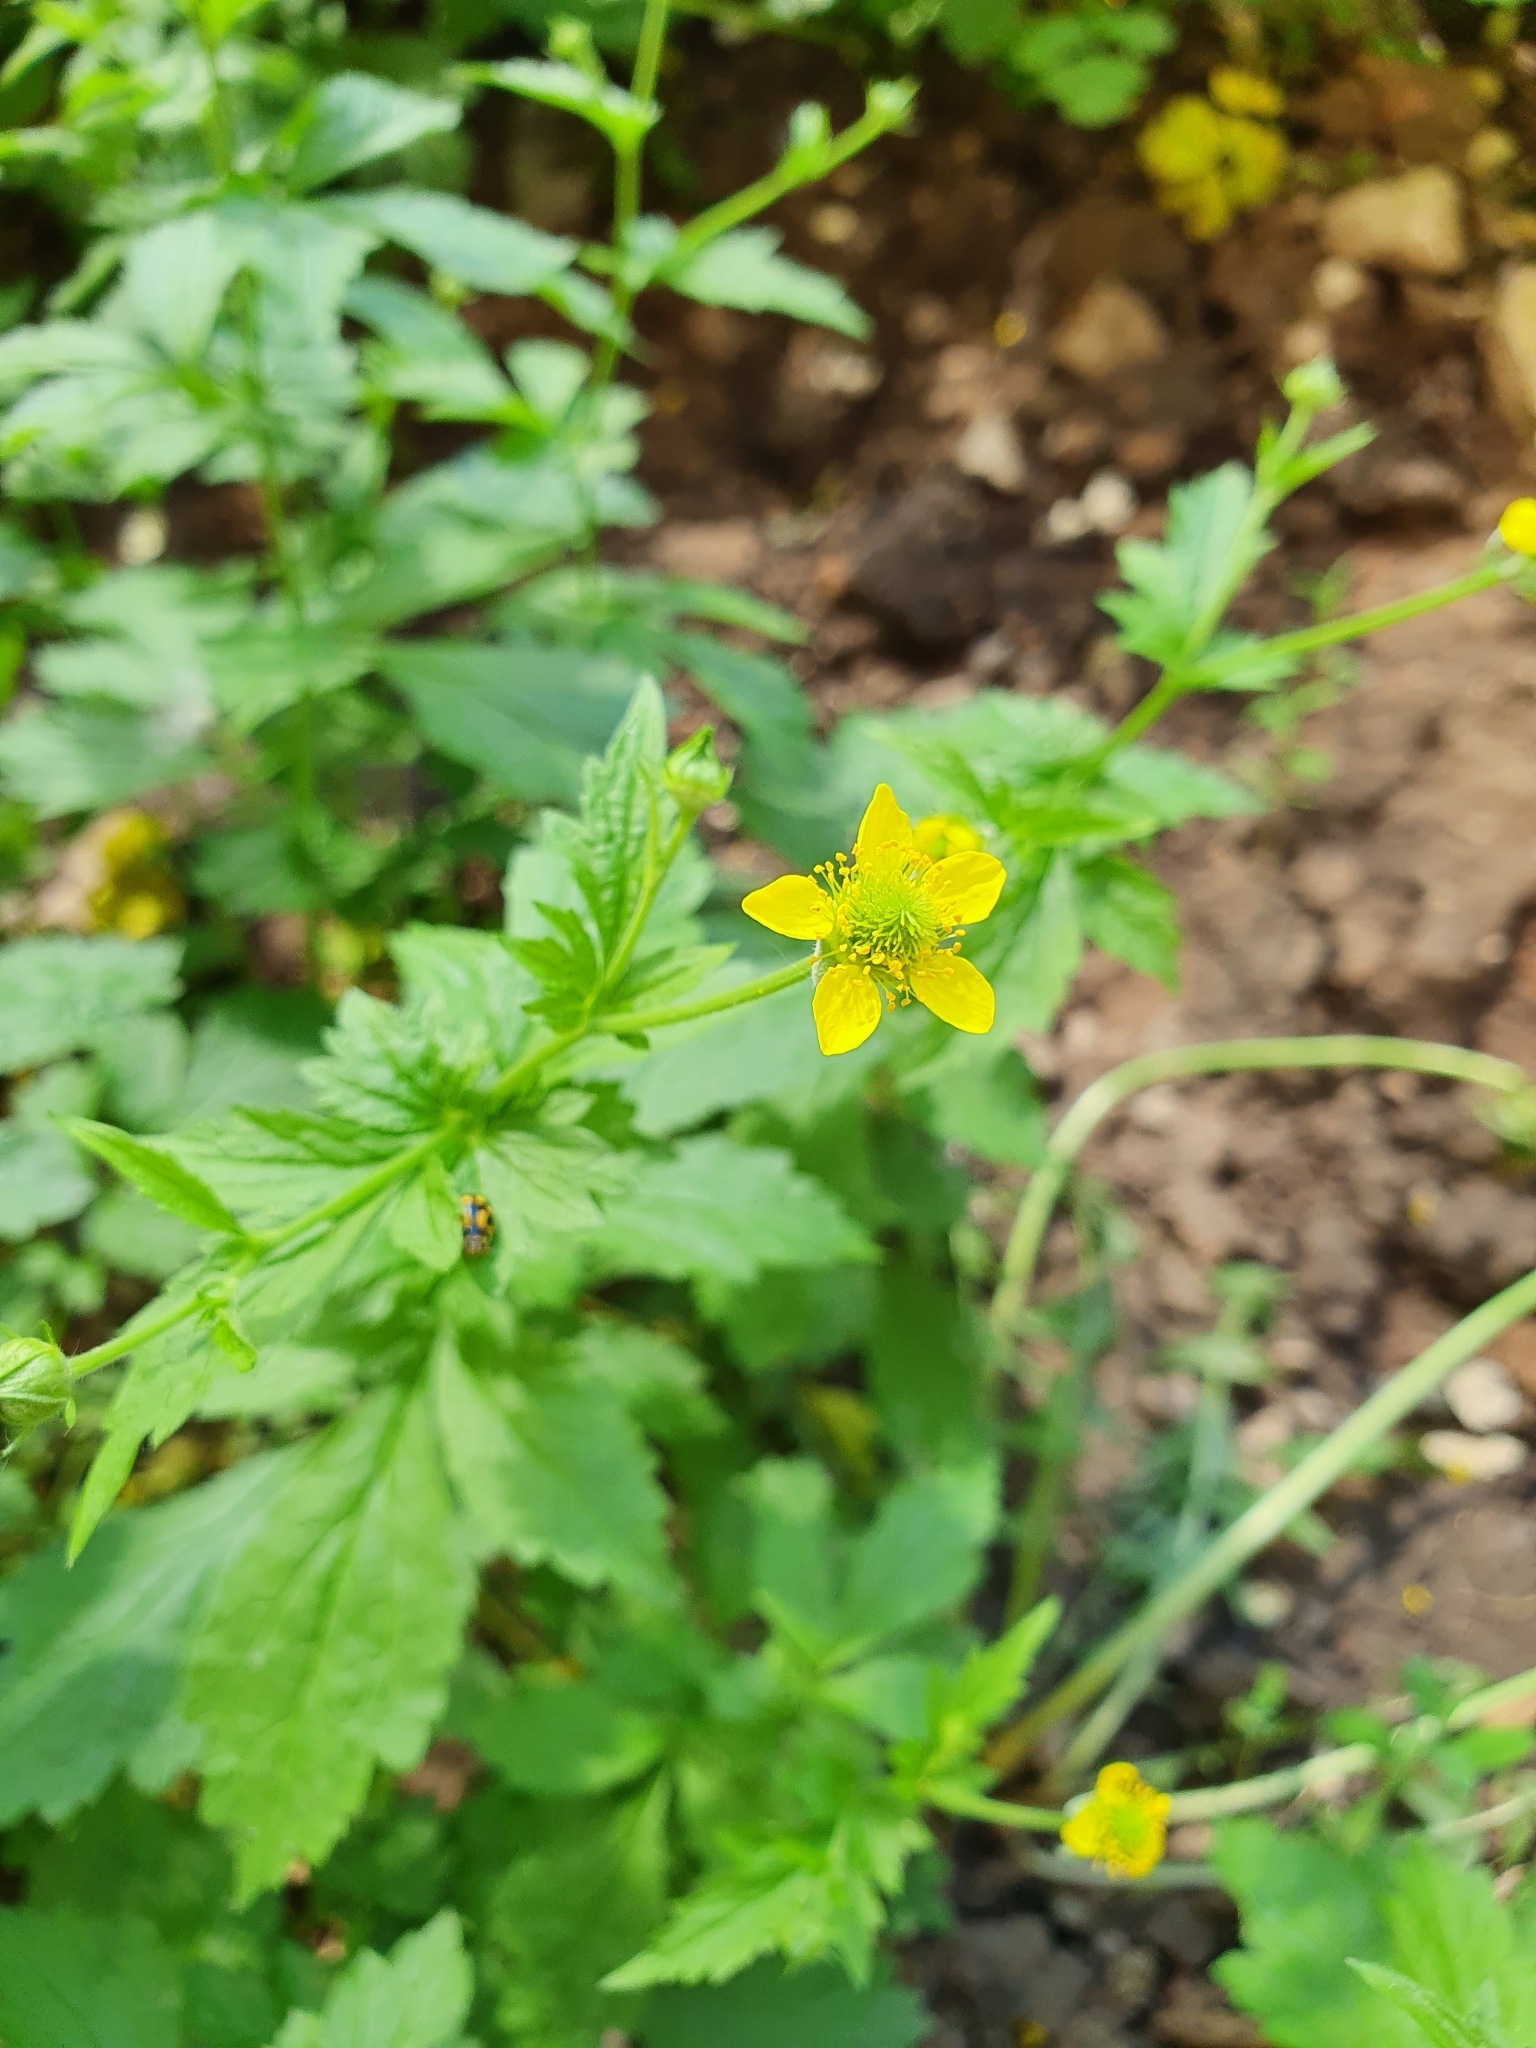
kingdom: Plantae
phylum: Tracheophyta
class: Magnoliopsida
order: Rosales
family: Rosaceae
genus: Geum
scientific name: Geum urbanum
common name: Wood avens
